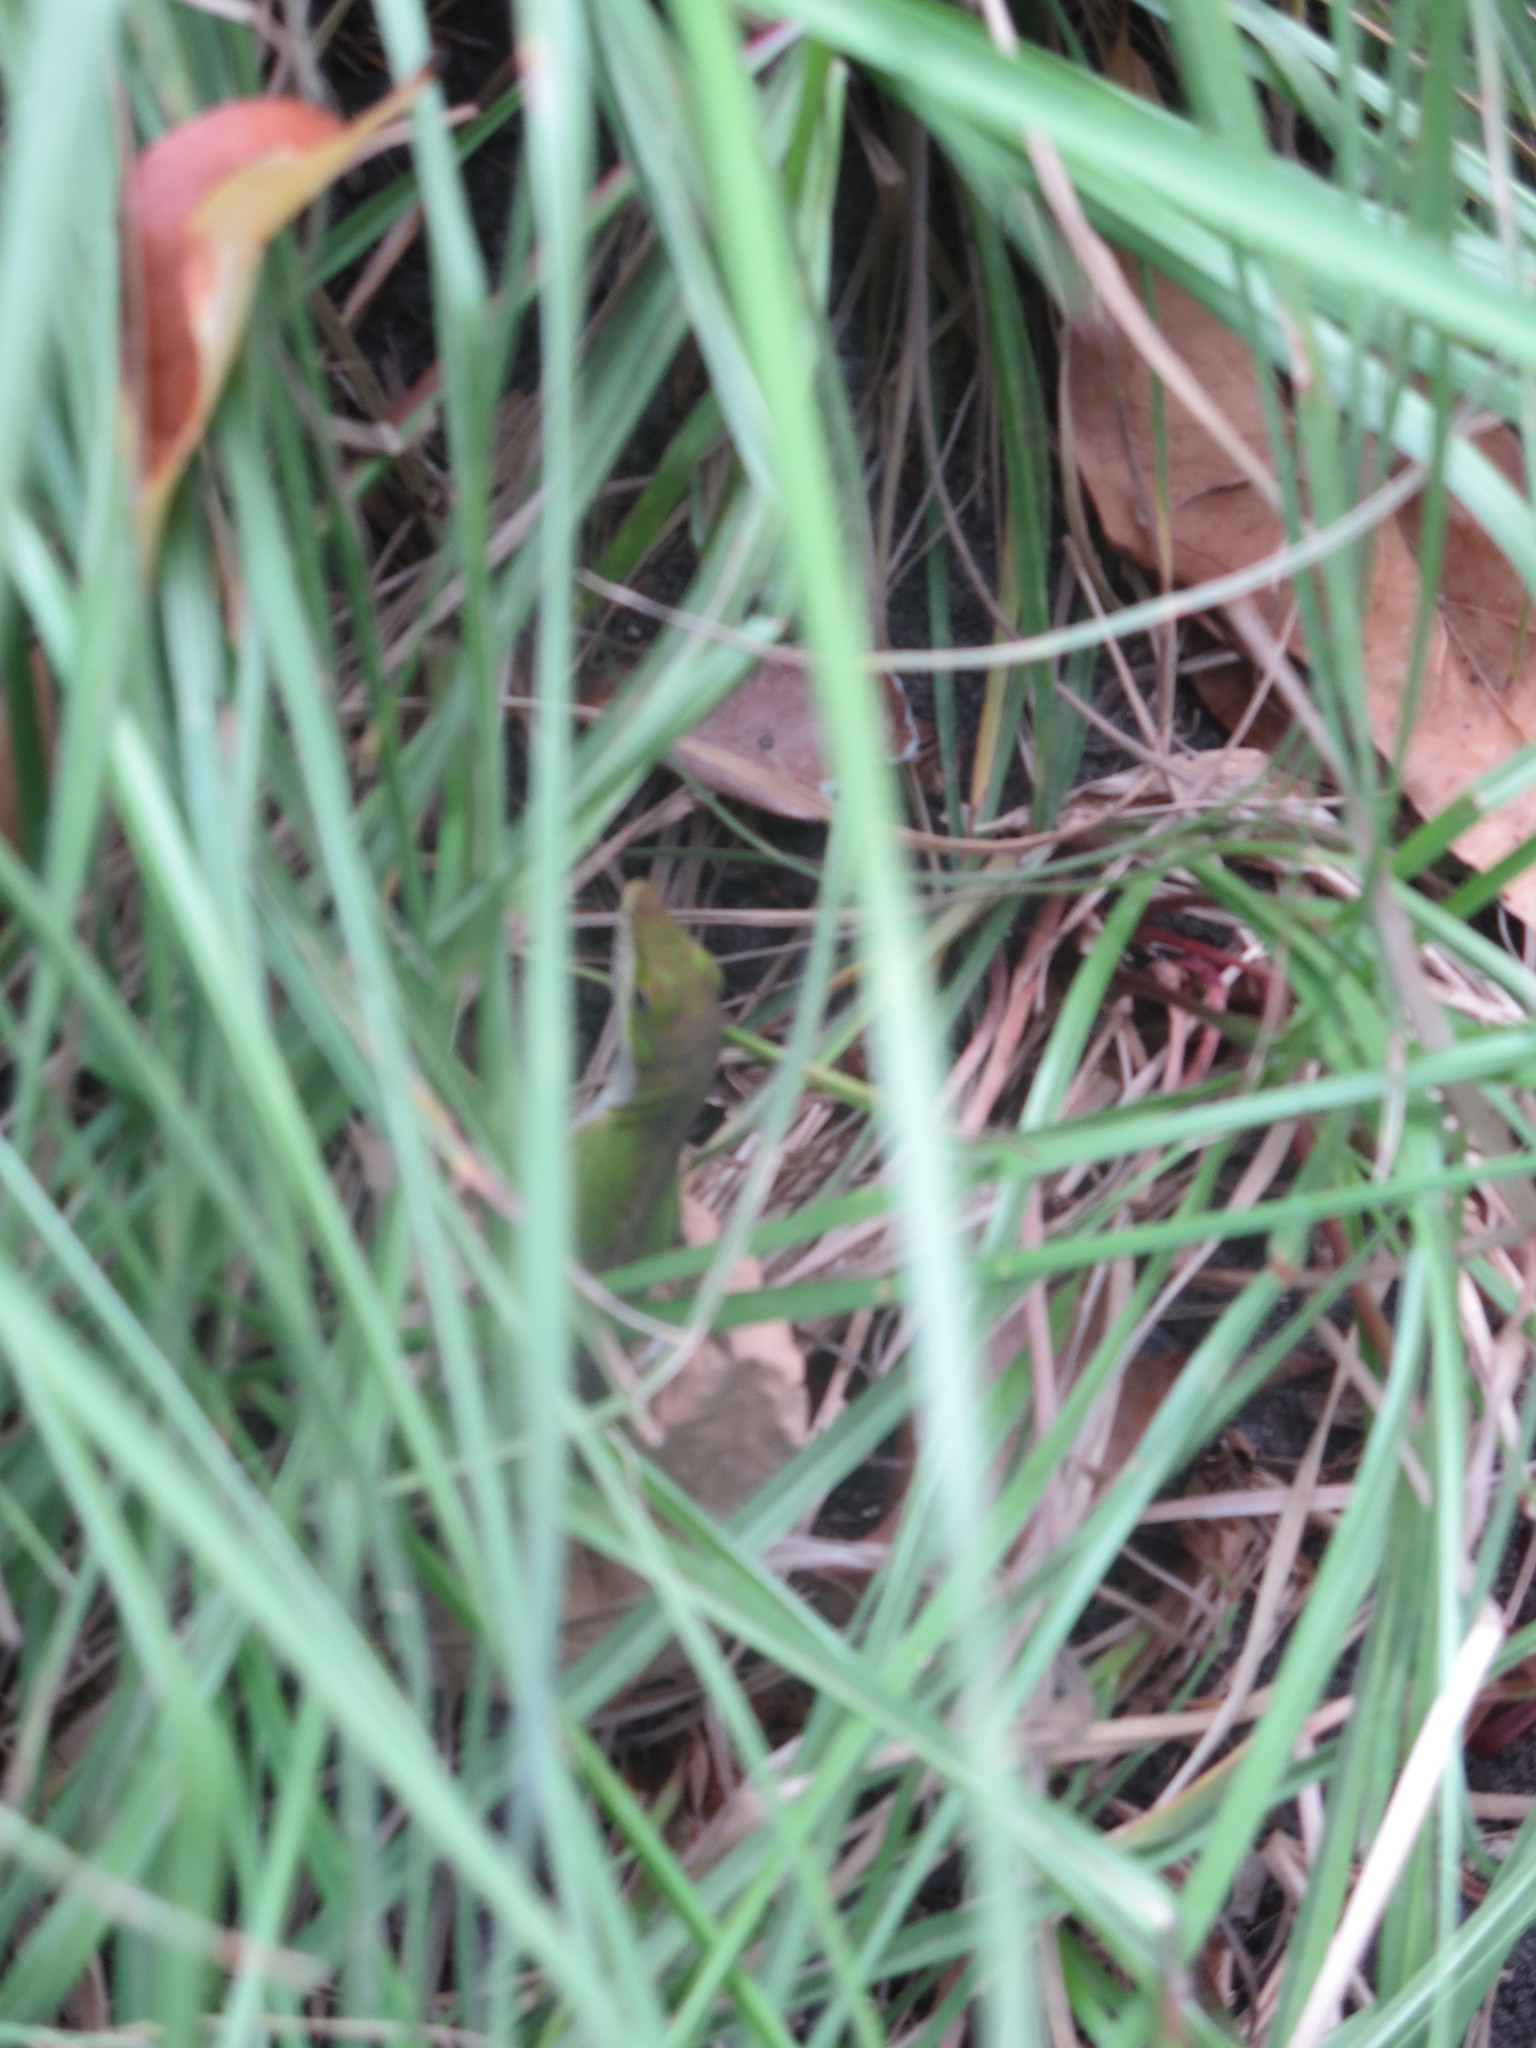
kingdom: Animalia
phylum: Chordata
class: Squamata
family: Dactyloidae
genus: Anolis
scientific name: Anolis carolinensis
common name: Green anole
